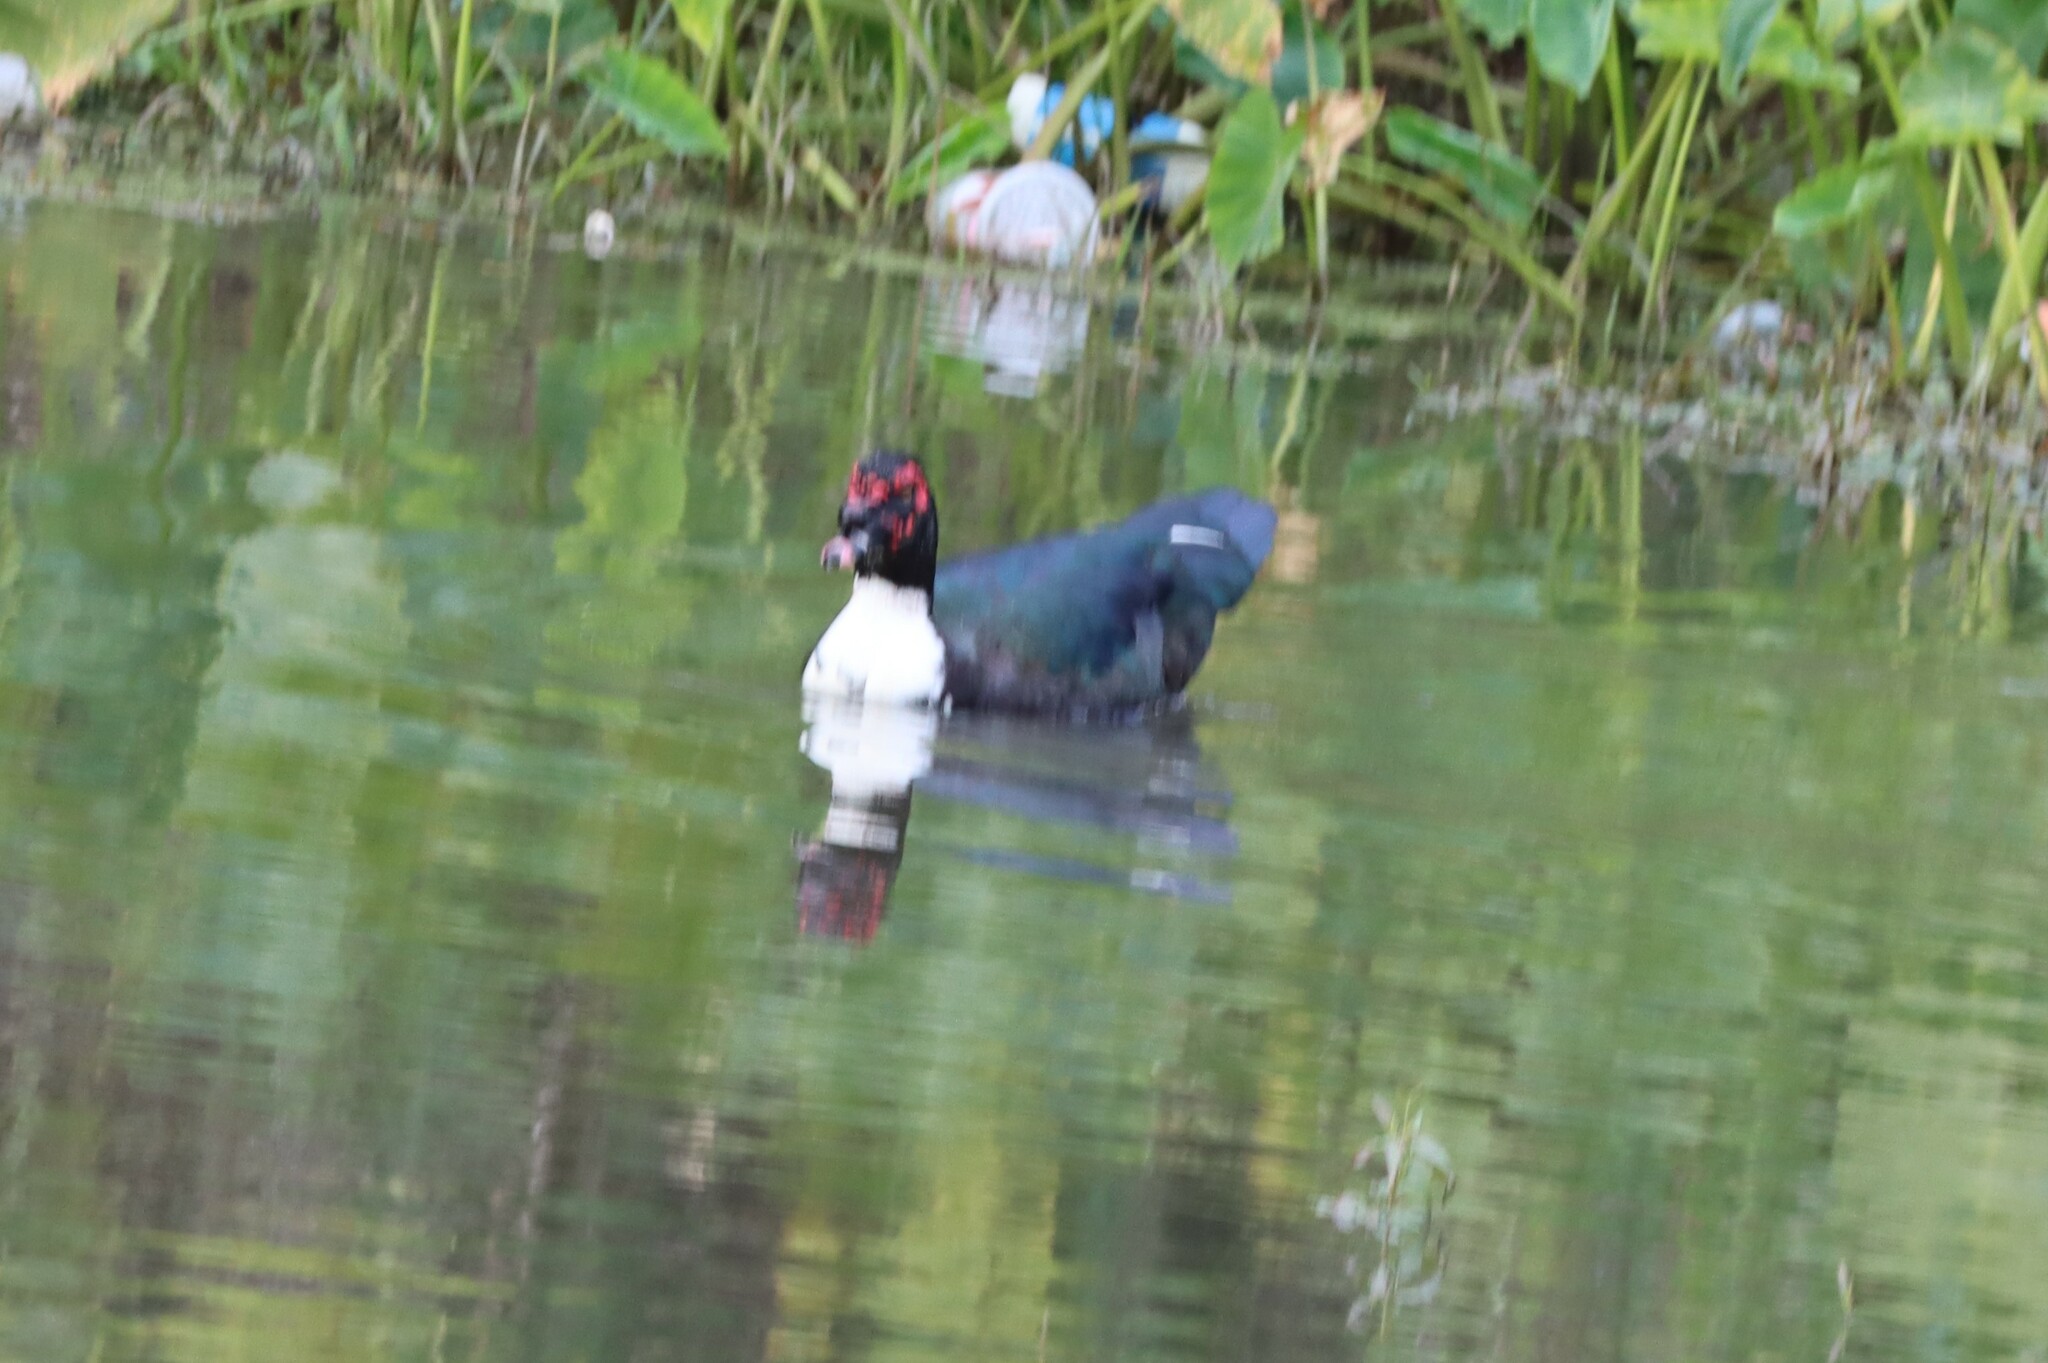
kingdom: Animalia
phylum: Chordata
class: Aves
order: Anseriformes
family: Anatidae
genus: Cairina
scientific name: Cairina moschata
